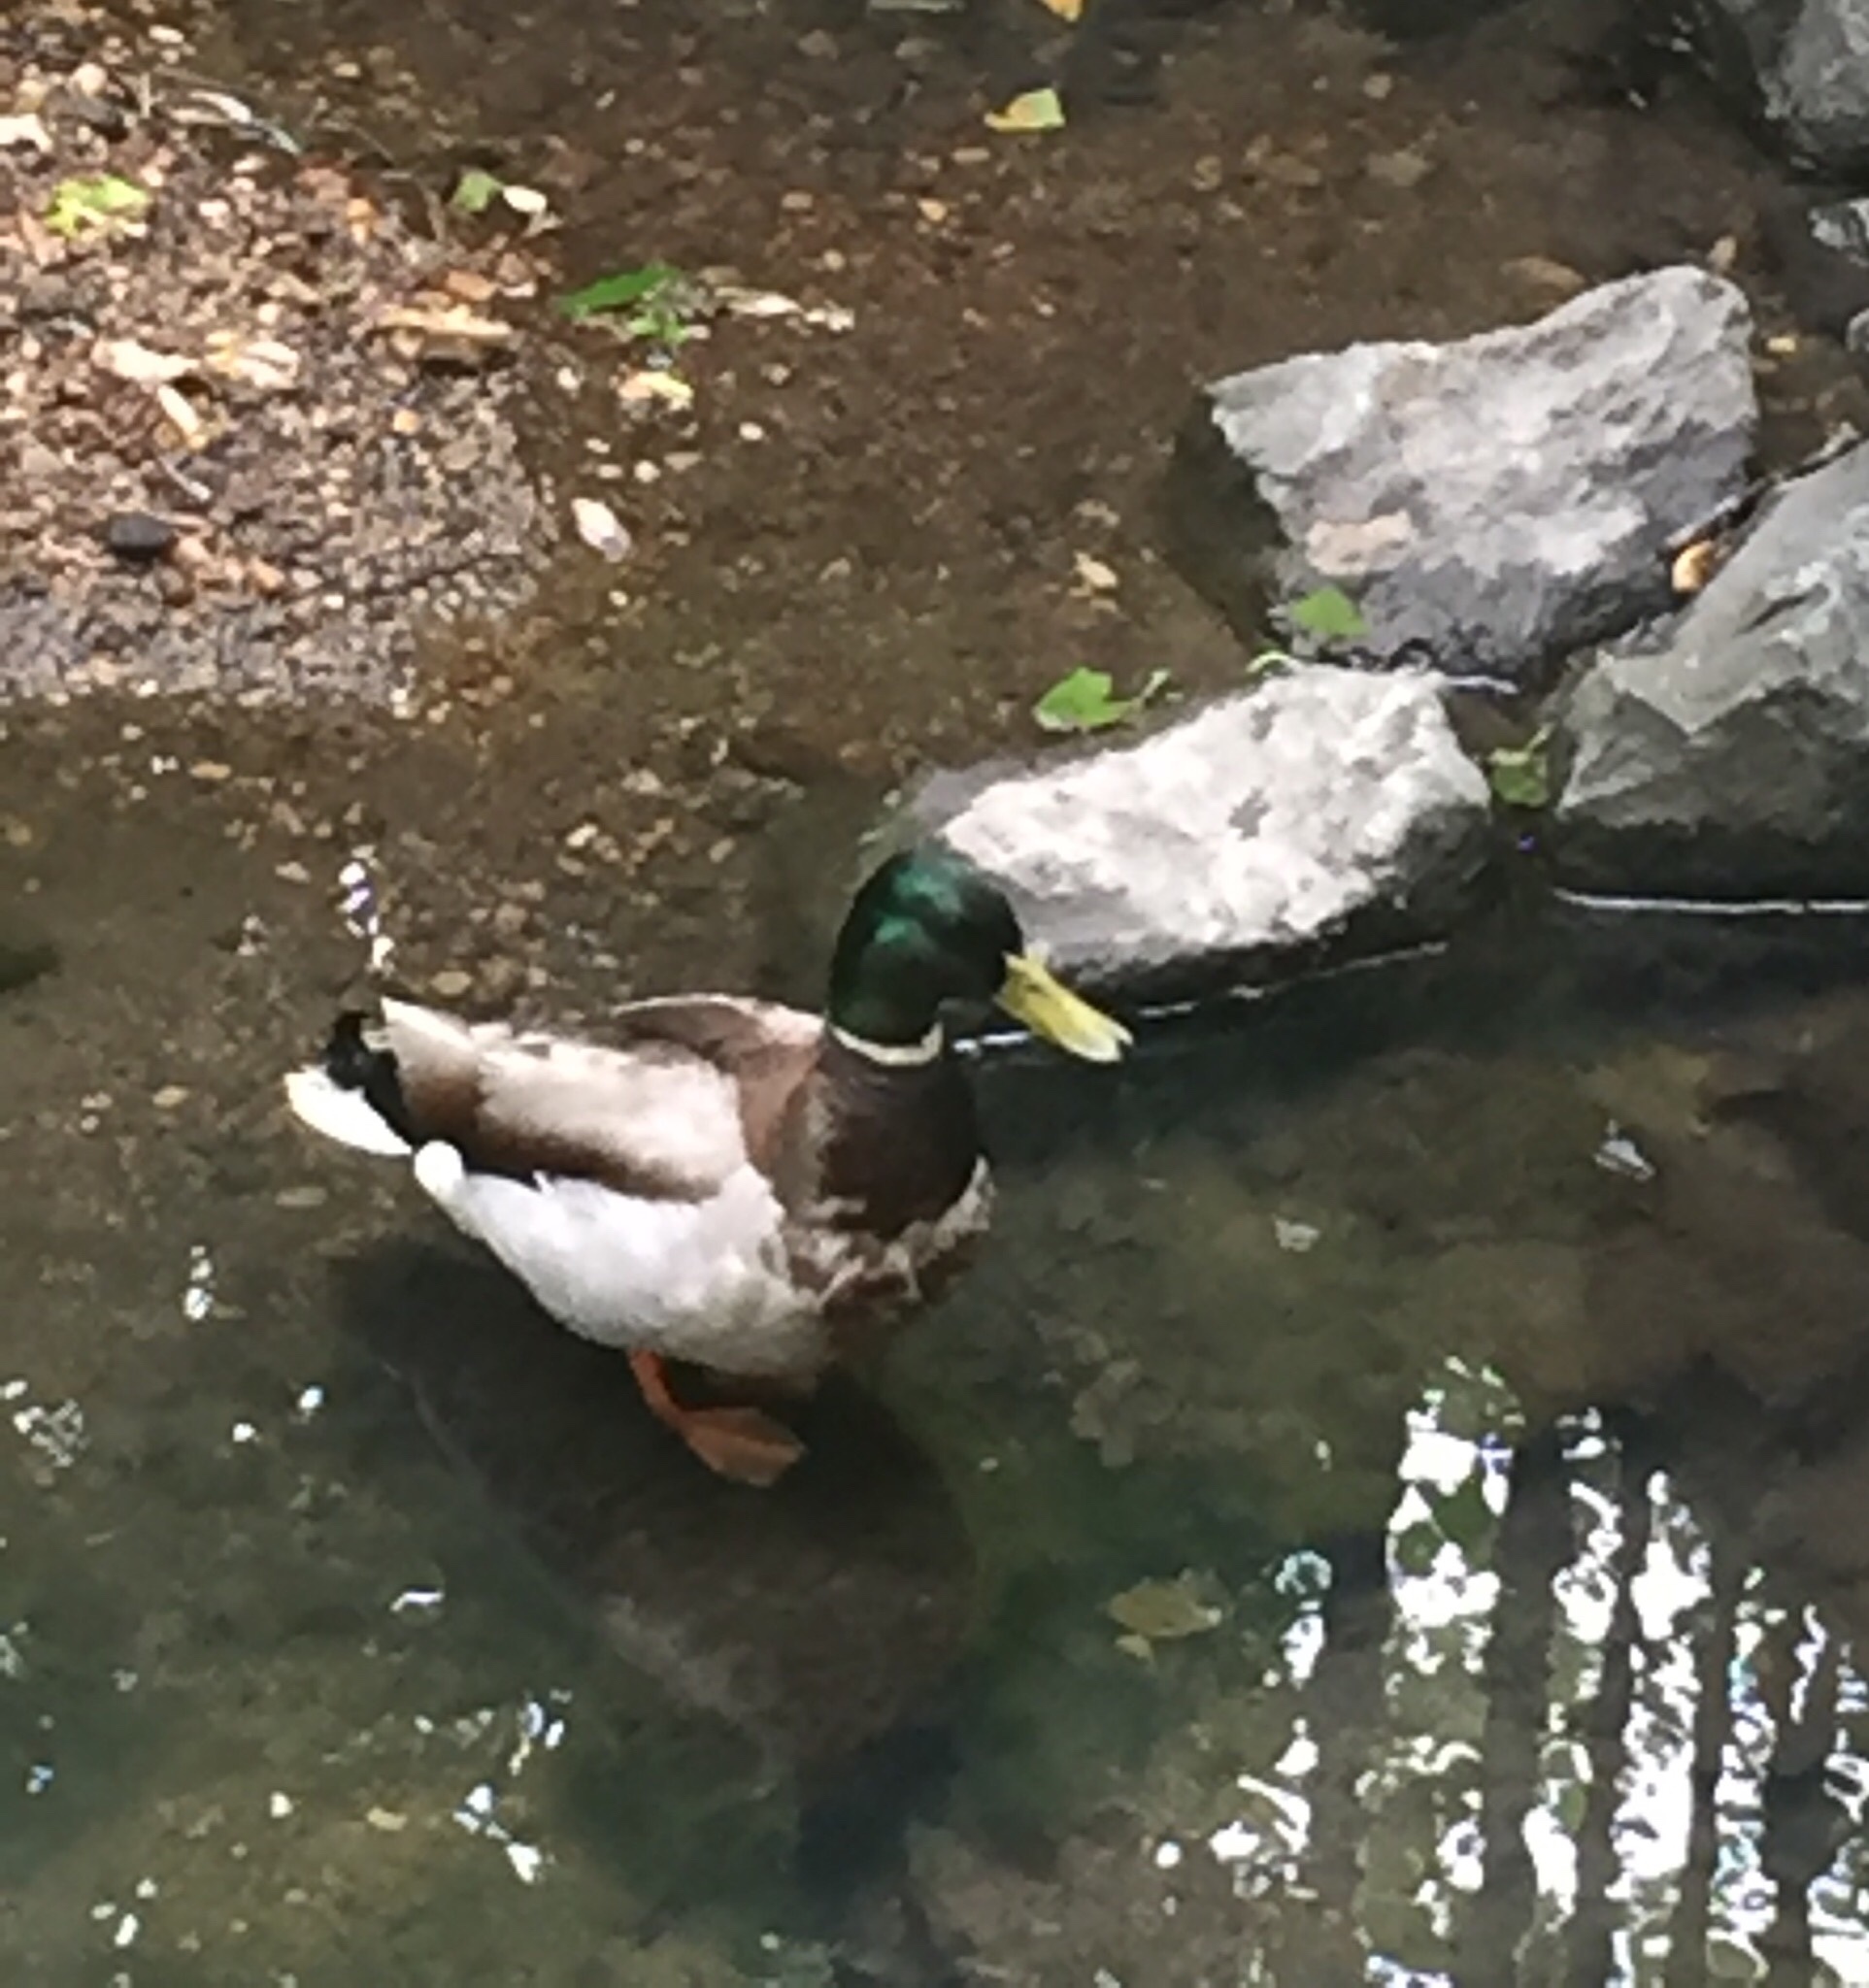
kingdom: Animalia
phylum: Chordata
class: Aves
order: Anseriformes
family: Anatidae
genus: Anas
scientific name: Anas platyrhynchos
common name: Mallard
